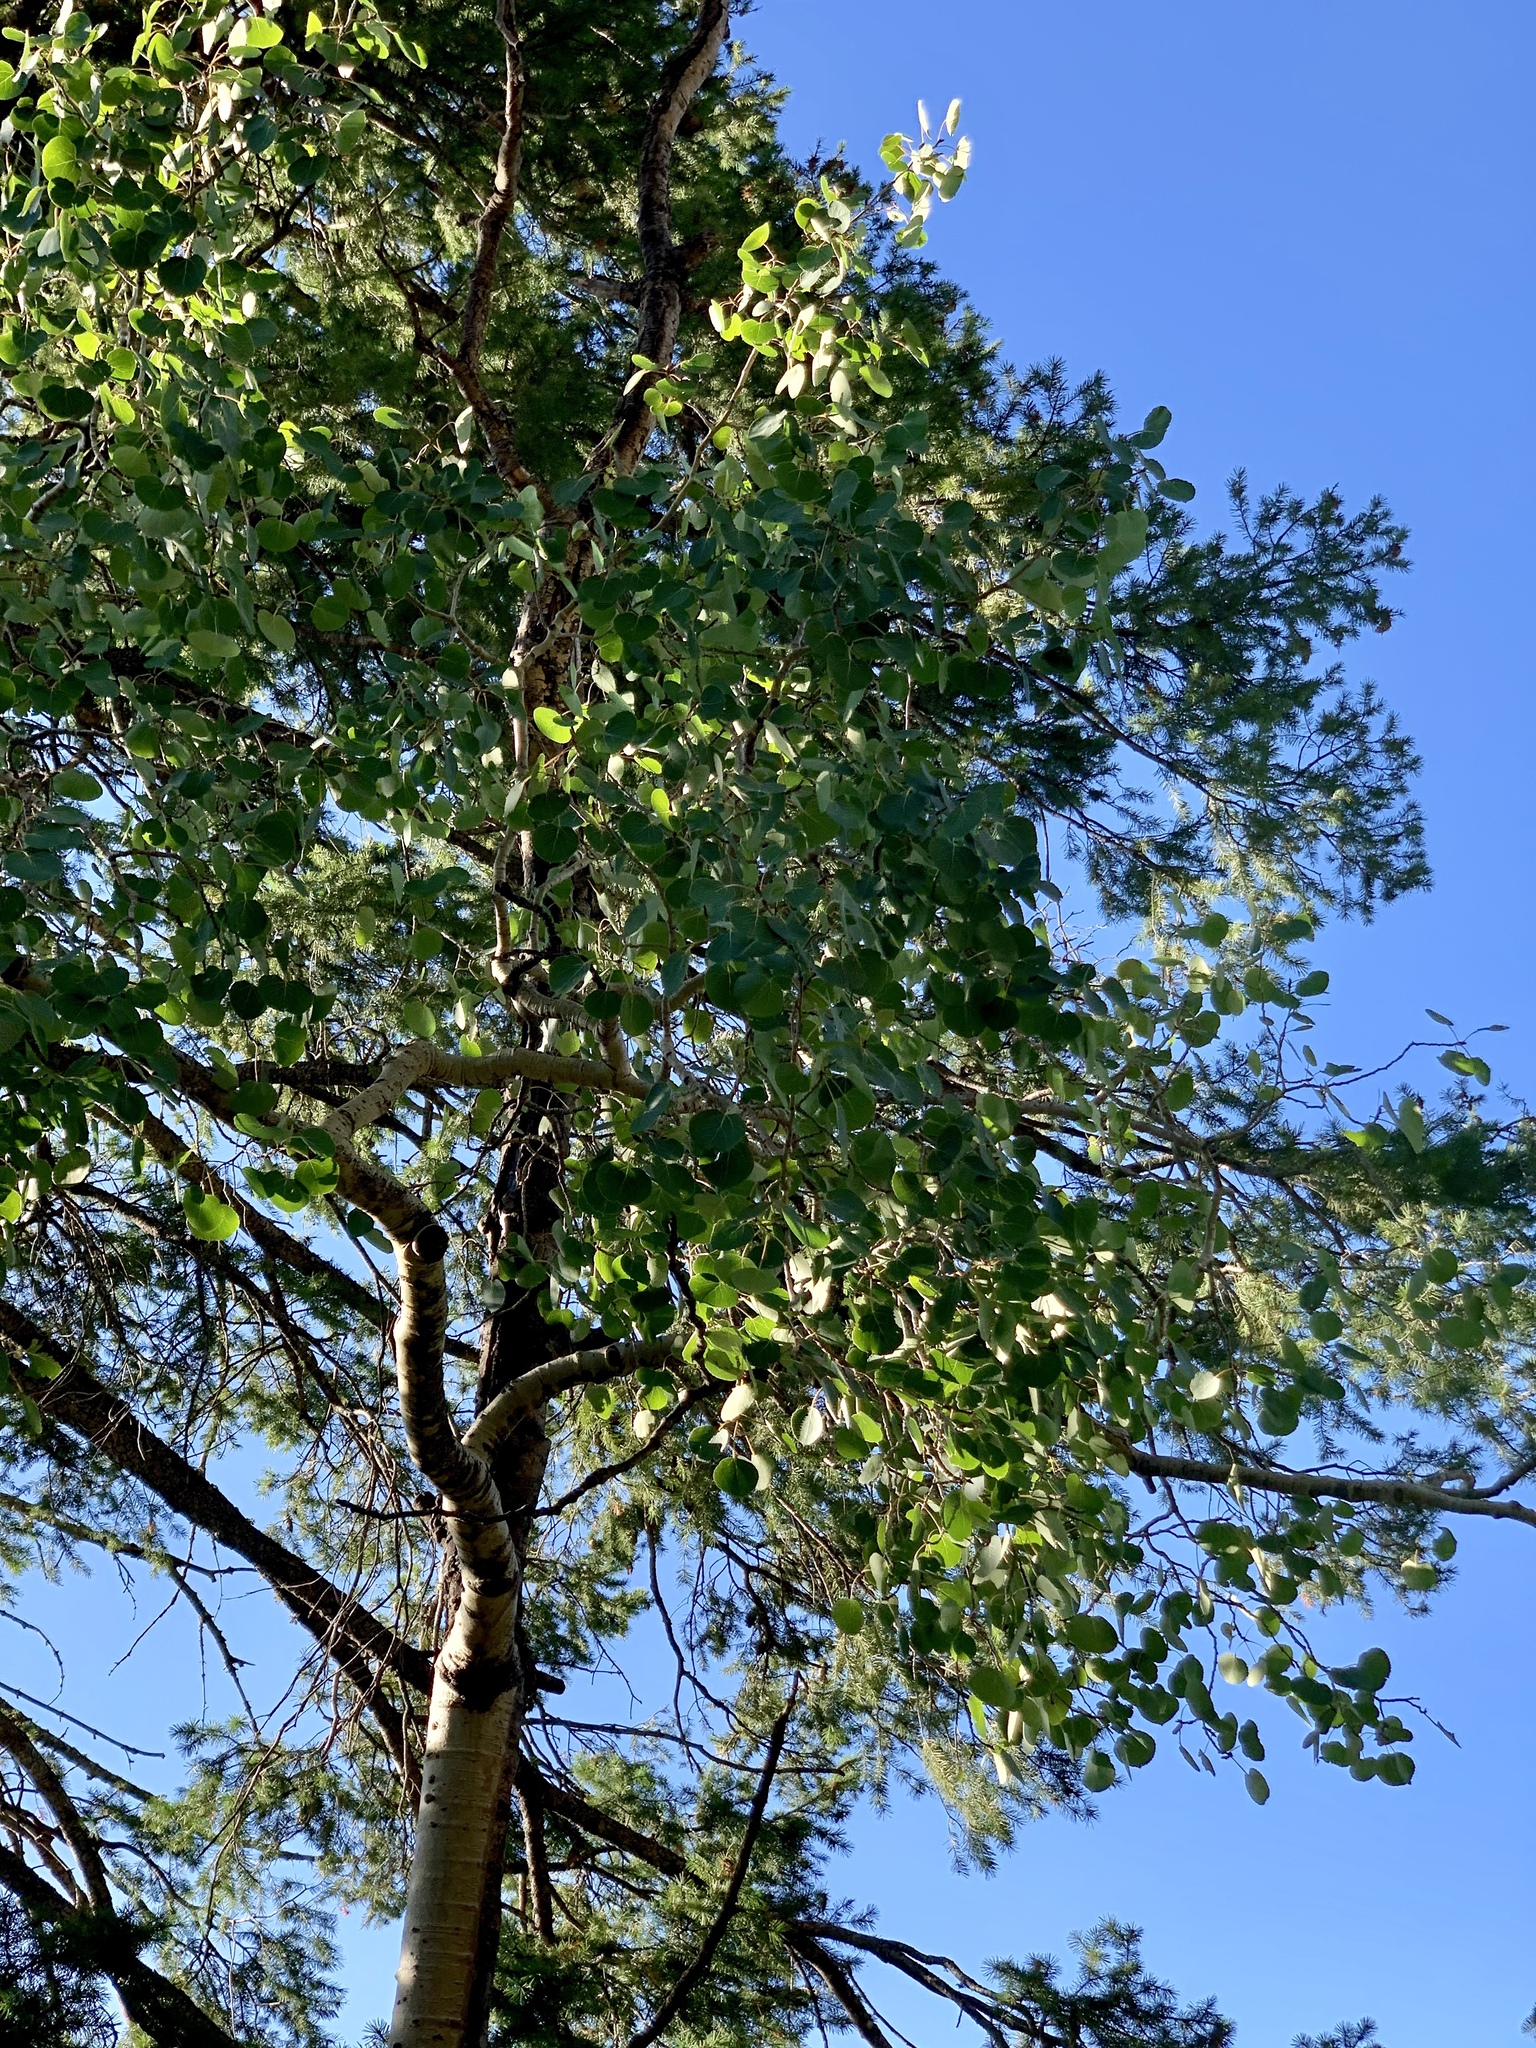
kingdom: Plantae
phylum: Tracheophyta
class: Magnoliopsida
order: Malpighiales
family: Salicaceae
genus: Populus
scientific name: Populus tremuloides
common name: Quaking aspen
